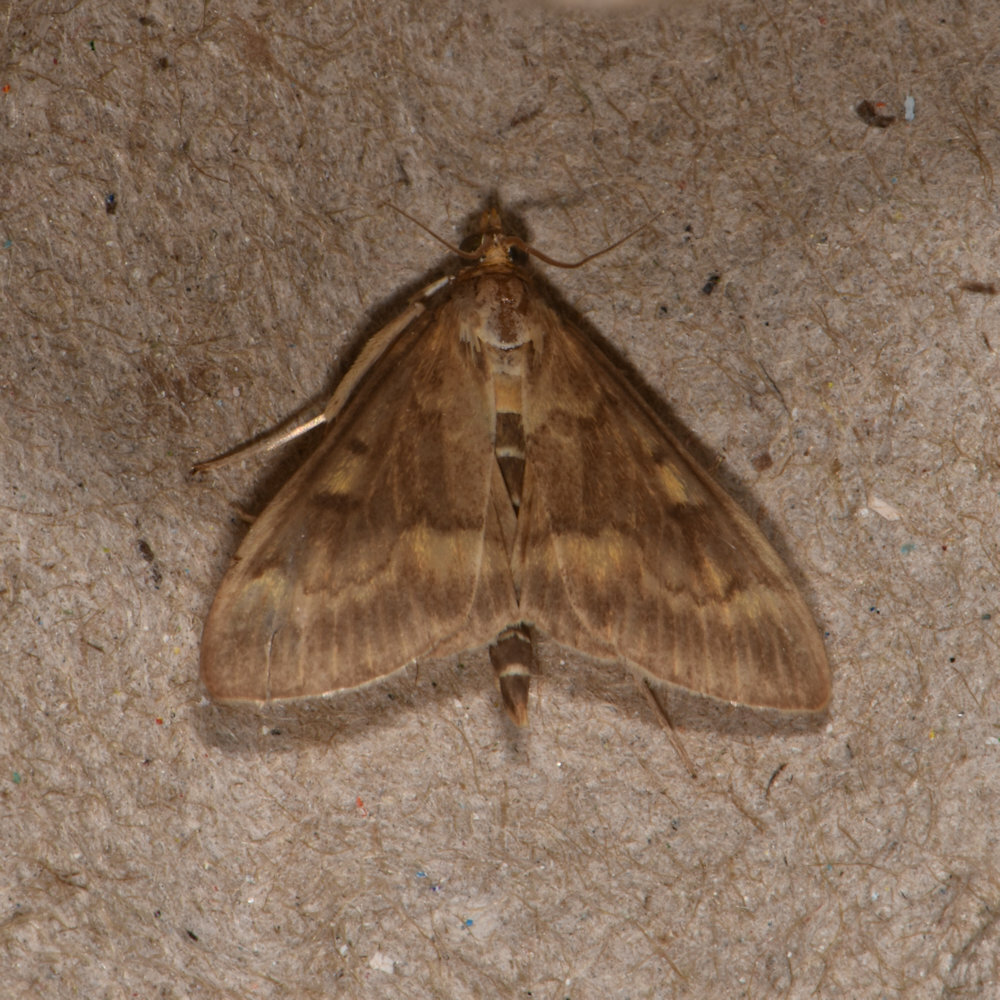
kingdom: Animalia
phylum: Arthropoda
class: Insecta
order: Lepidoptera
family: Crambidae
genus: Ostrinia
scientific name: Ostrinia nubilalis
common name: European corn borer
